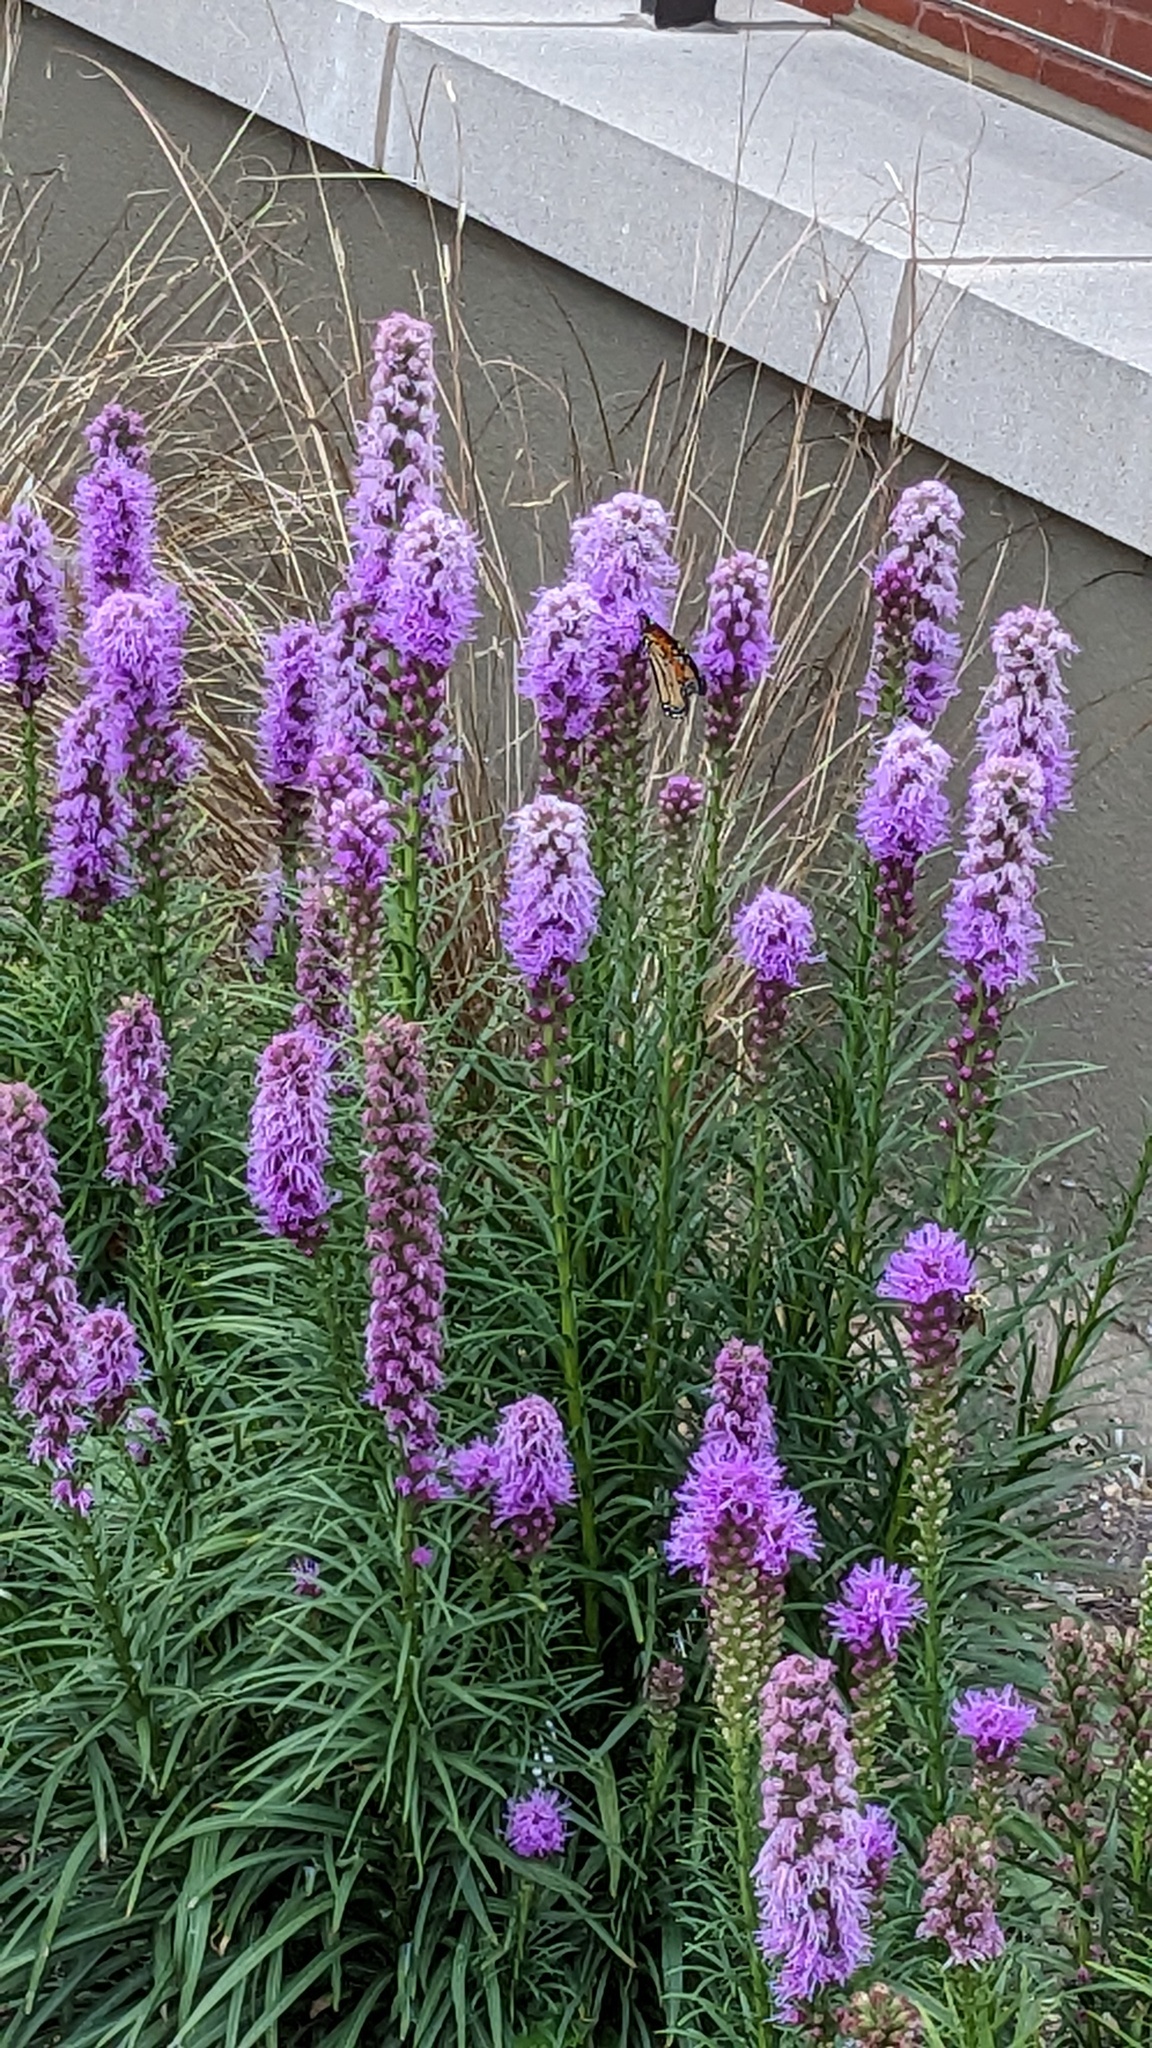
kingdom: Animalia
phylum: Arthropoda
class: Insecta
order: Lepidoptera
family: Nymphalidae
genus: Danaus
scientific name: Danaus plexippus
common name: Monarch
